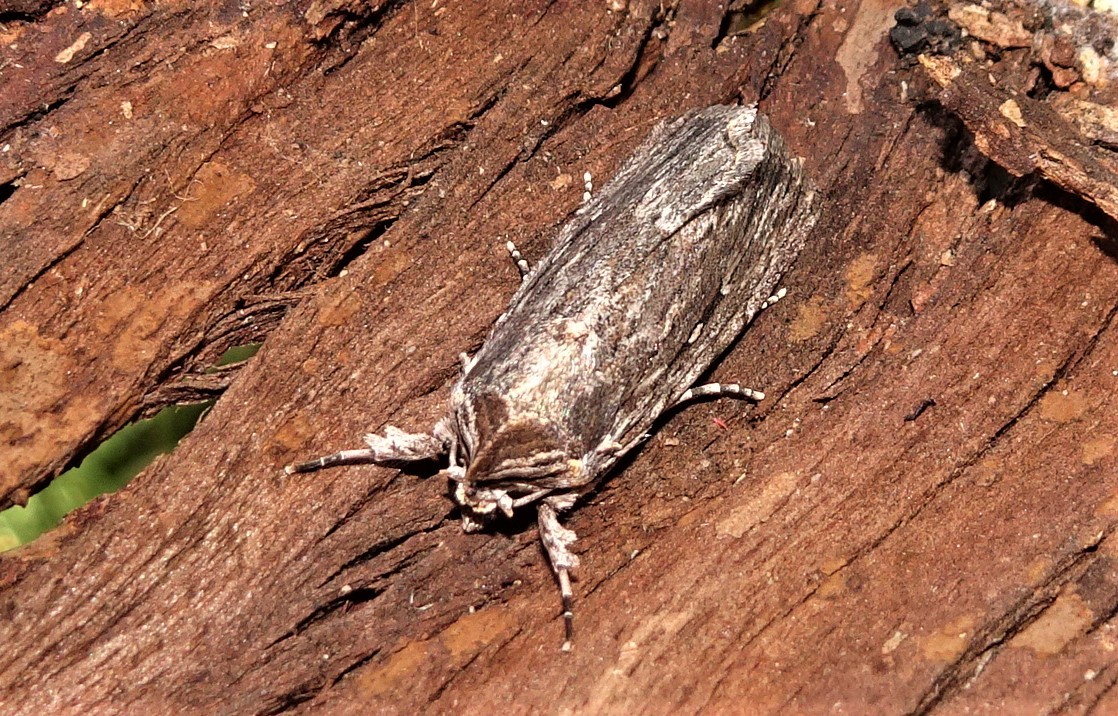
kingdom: Animalia
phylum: Arthropoda
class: Insecta
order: Lepidoptera
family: Noctuidae
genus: Neogalea
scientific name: Neogalea sunia
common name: Lantana stick caterpillar
